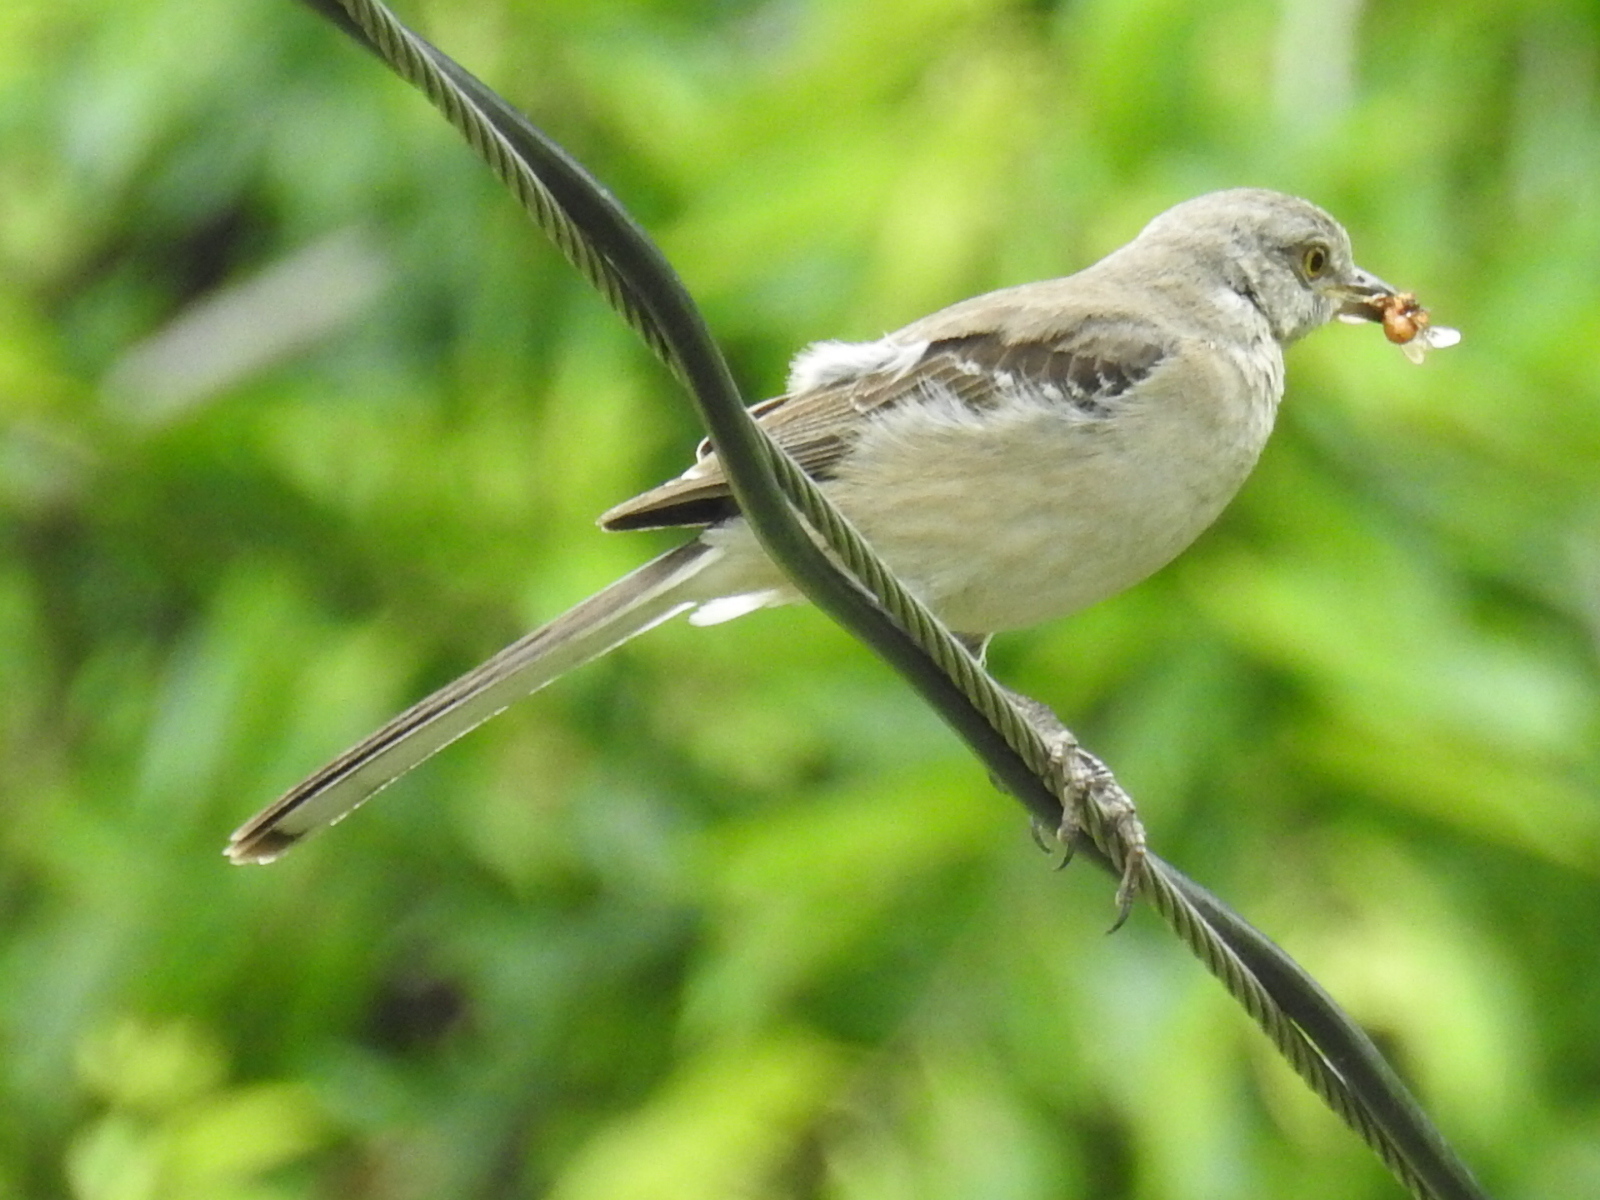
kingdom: Animalia
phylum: Chordata
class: Aves
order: Passeriformes
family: Mimidae
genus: Mimus
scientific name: Mimus polyglottos
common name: Northern mockingbird
